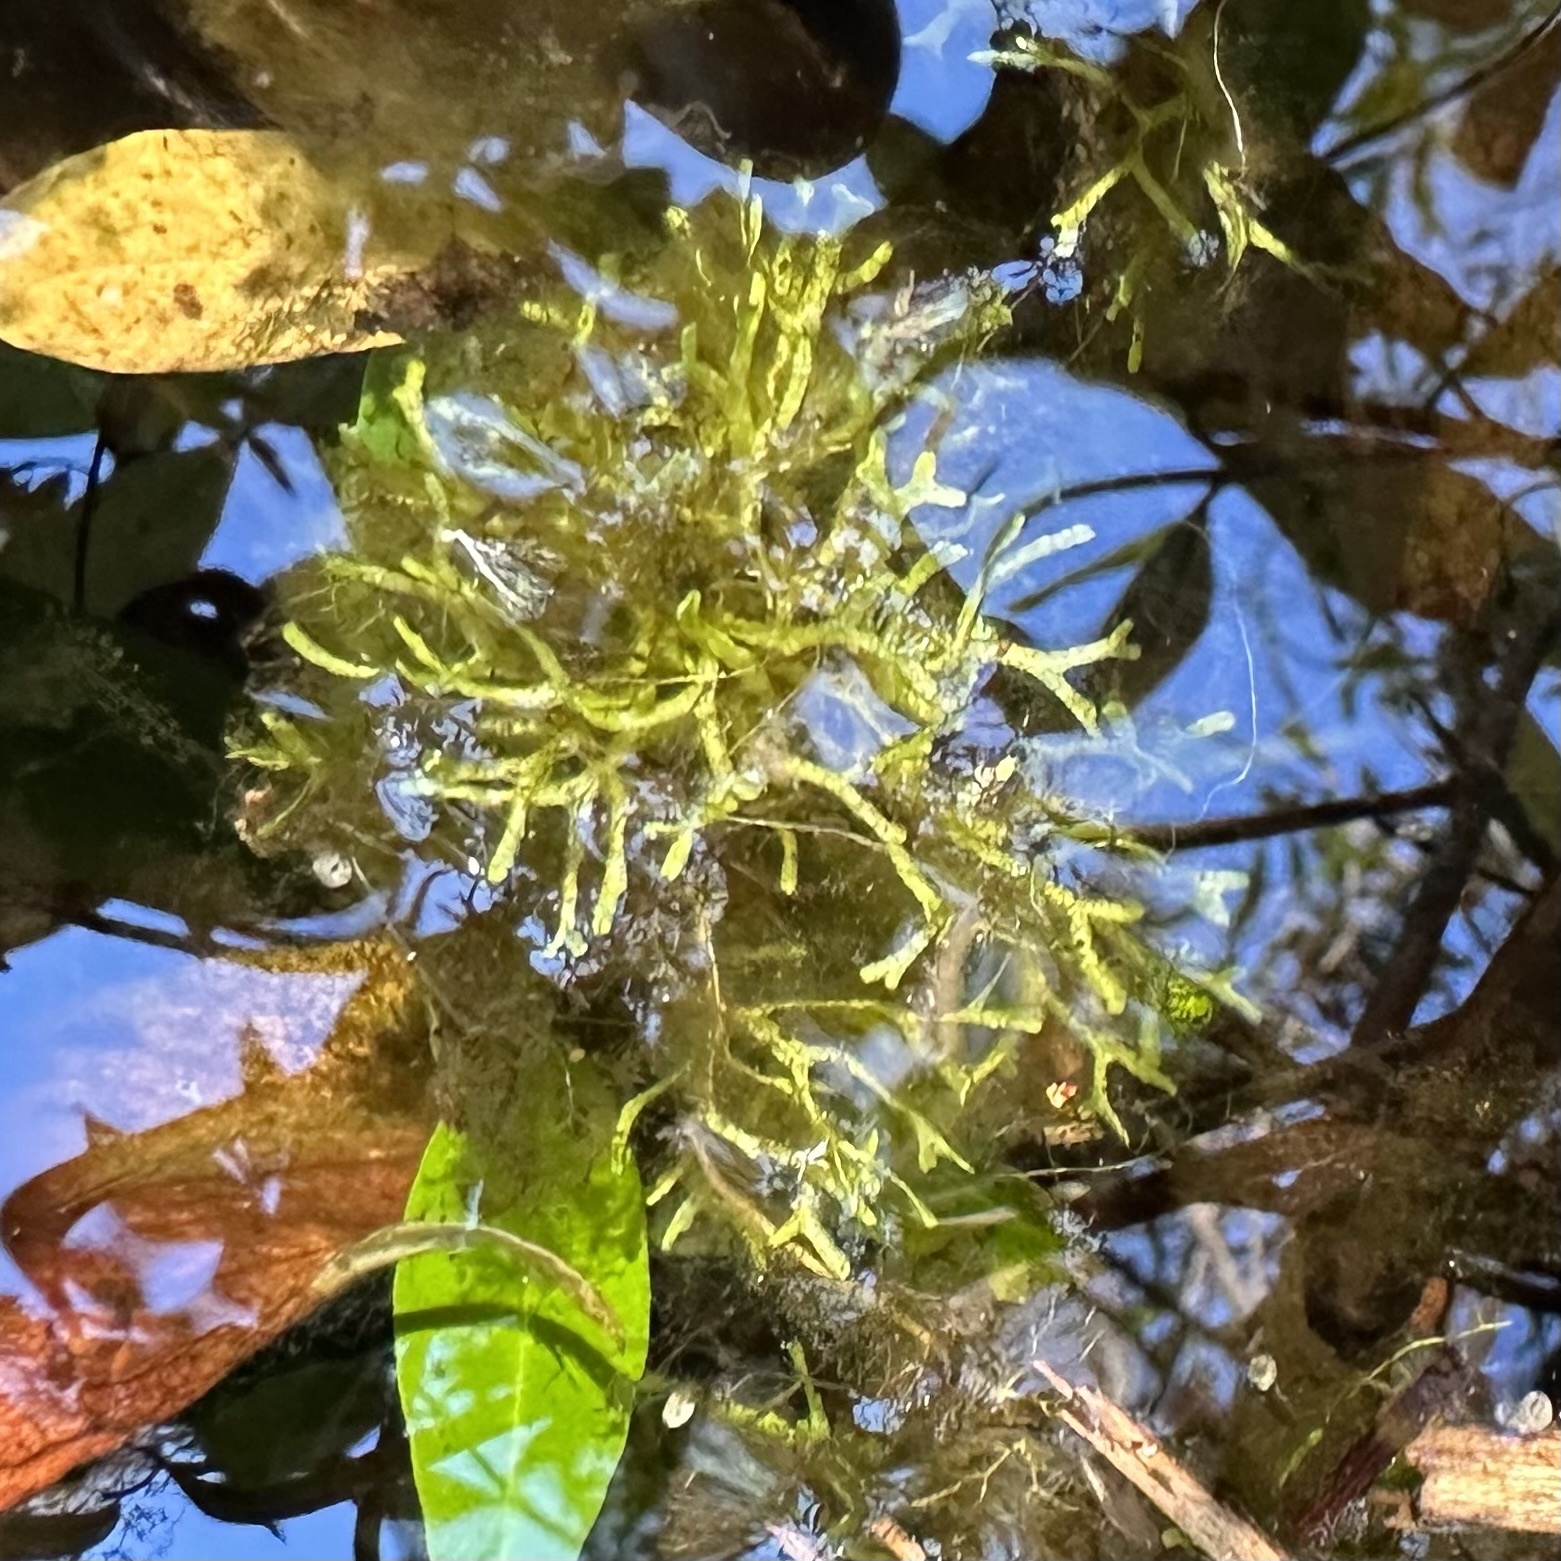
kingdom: Plantae
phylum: Marchantiophyta
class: Marchantiopsida
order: Marchantiales
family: Ricciaceae
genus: Riccia
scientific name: Riccia fluitans
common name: Floating crystalwort
